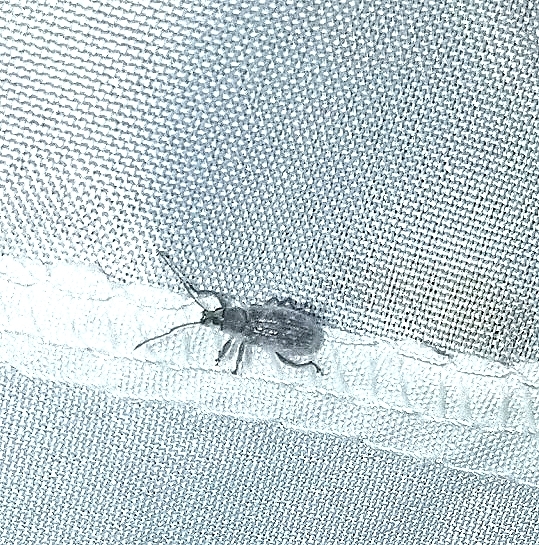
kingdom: Animalia
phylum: Arthropoda
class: Insecta
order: Coleoptera
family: Curculionidae
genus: Cyrtepistomus
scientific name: Cyrtepistomus castaneus
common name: Weevil
